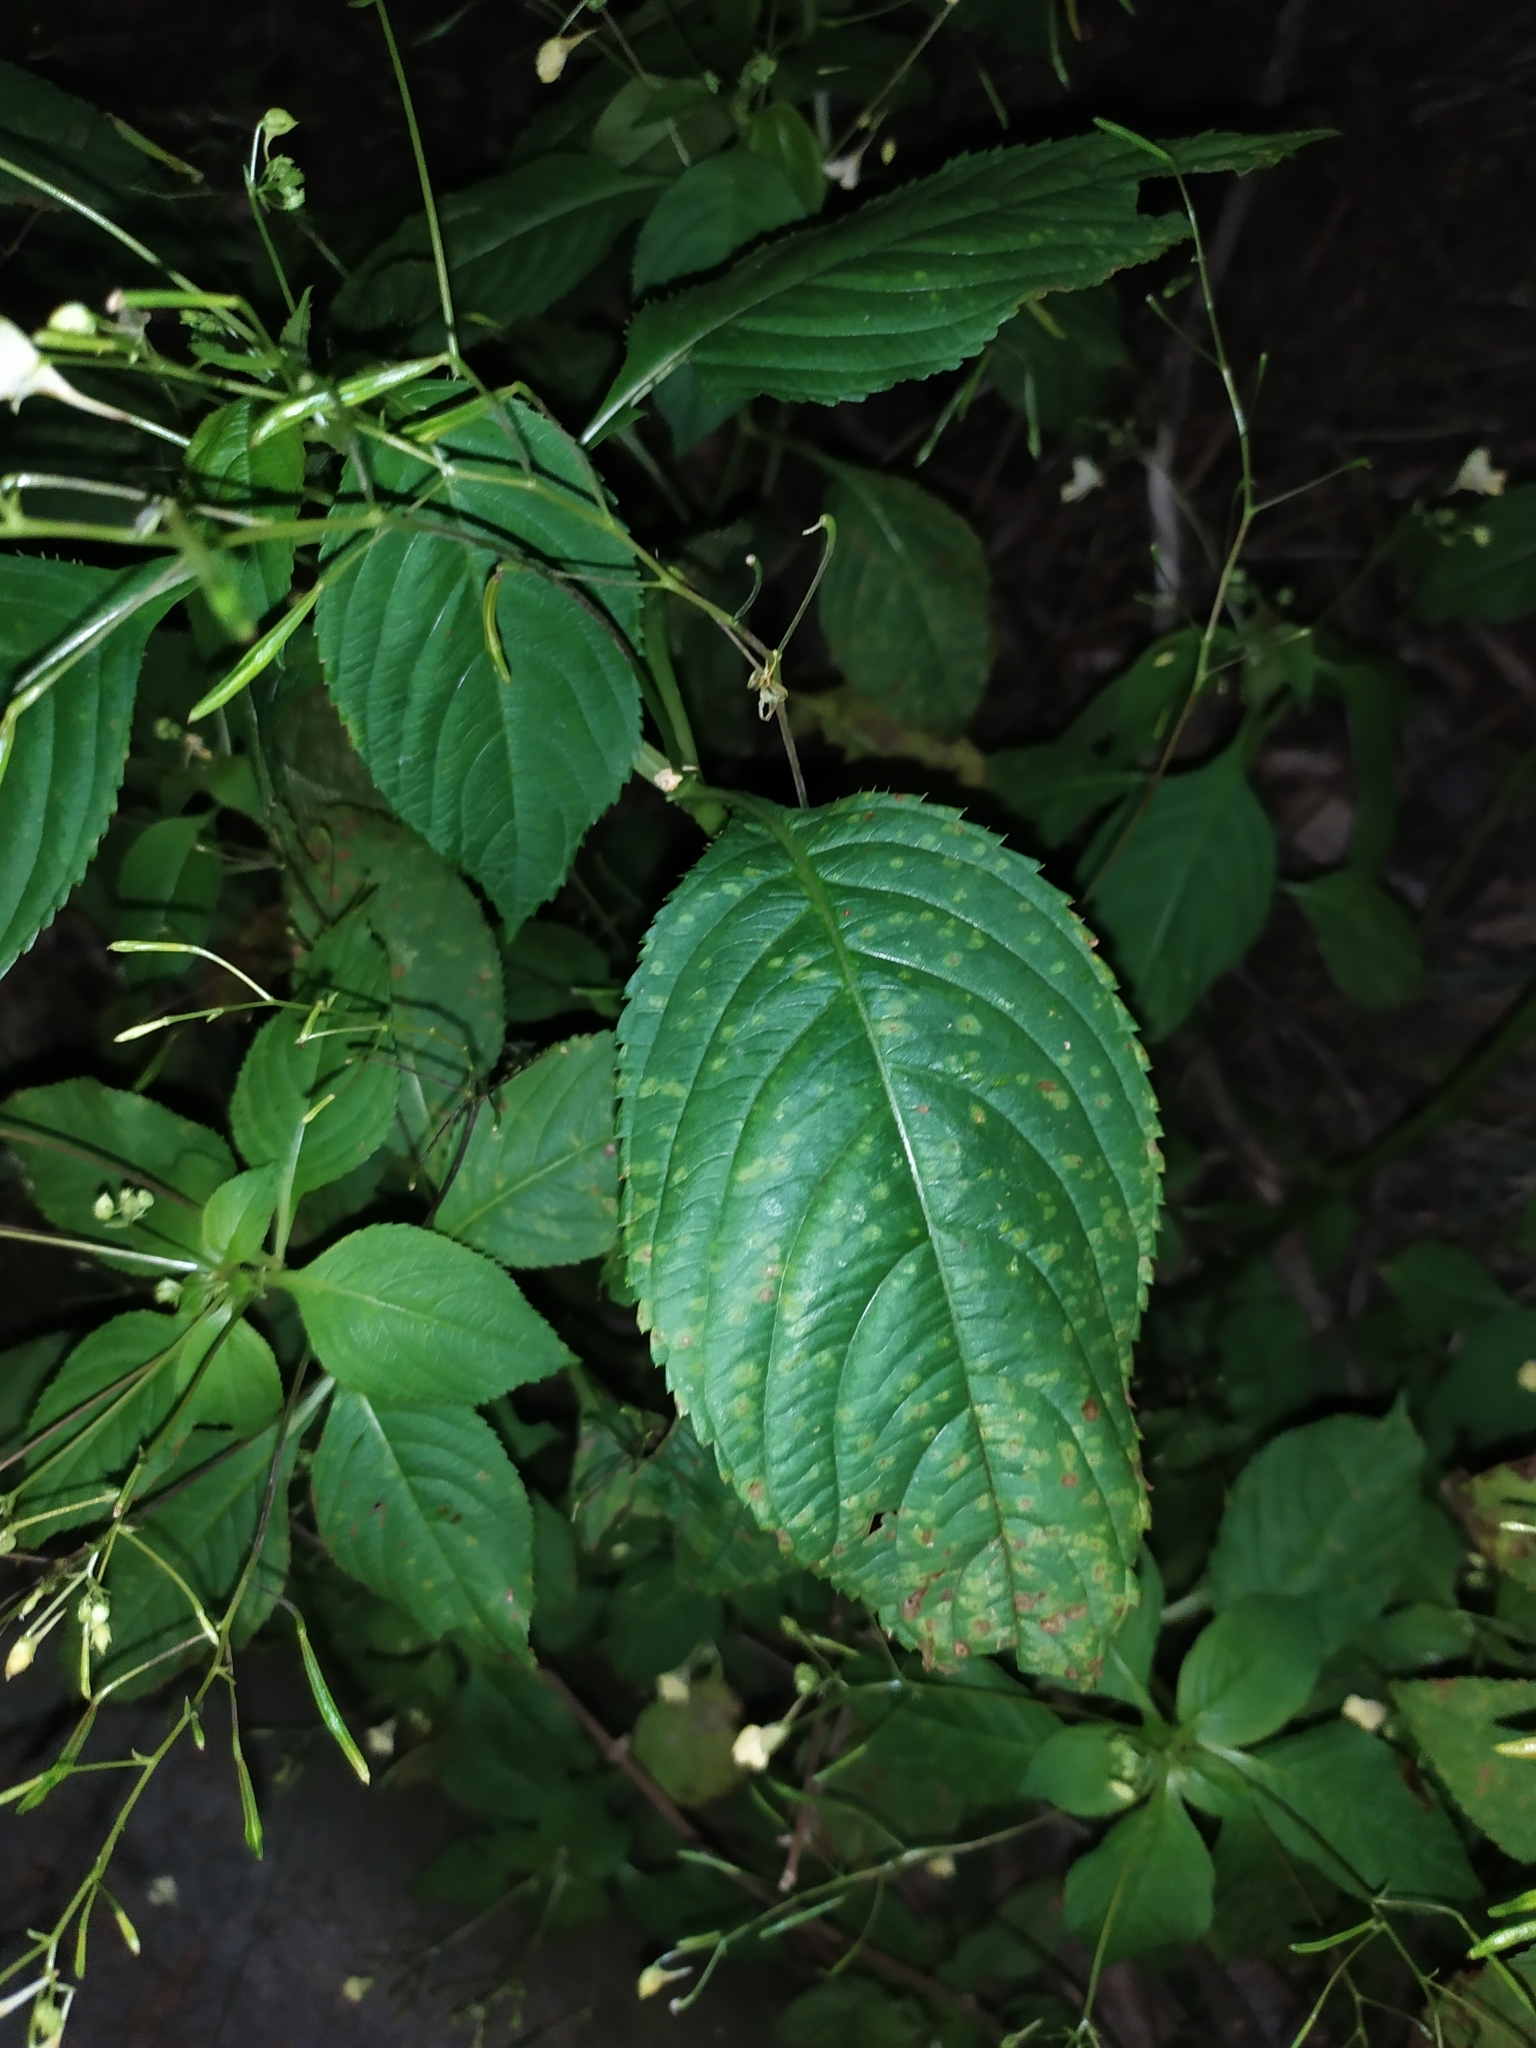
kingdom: Fungi
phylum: Basidiomycota
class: Pucciniomycetes
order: Pucciniales
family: Pucciniaceae
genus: Puccinia
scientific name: Puccinia komarovii
